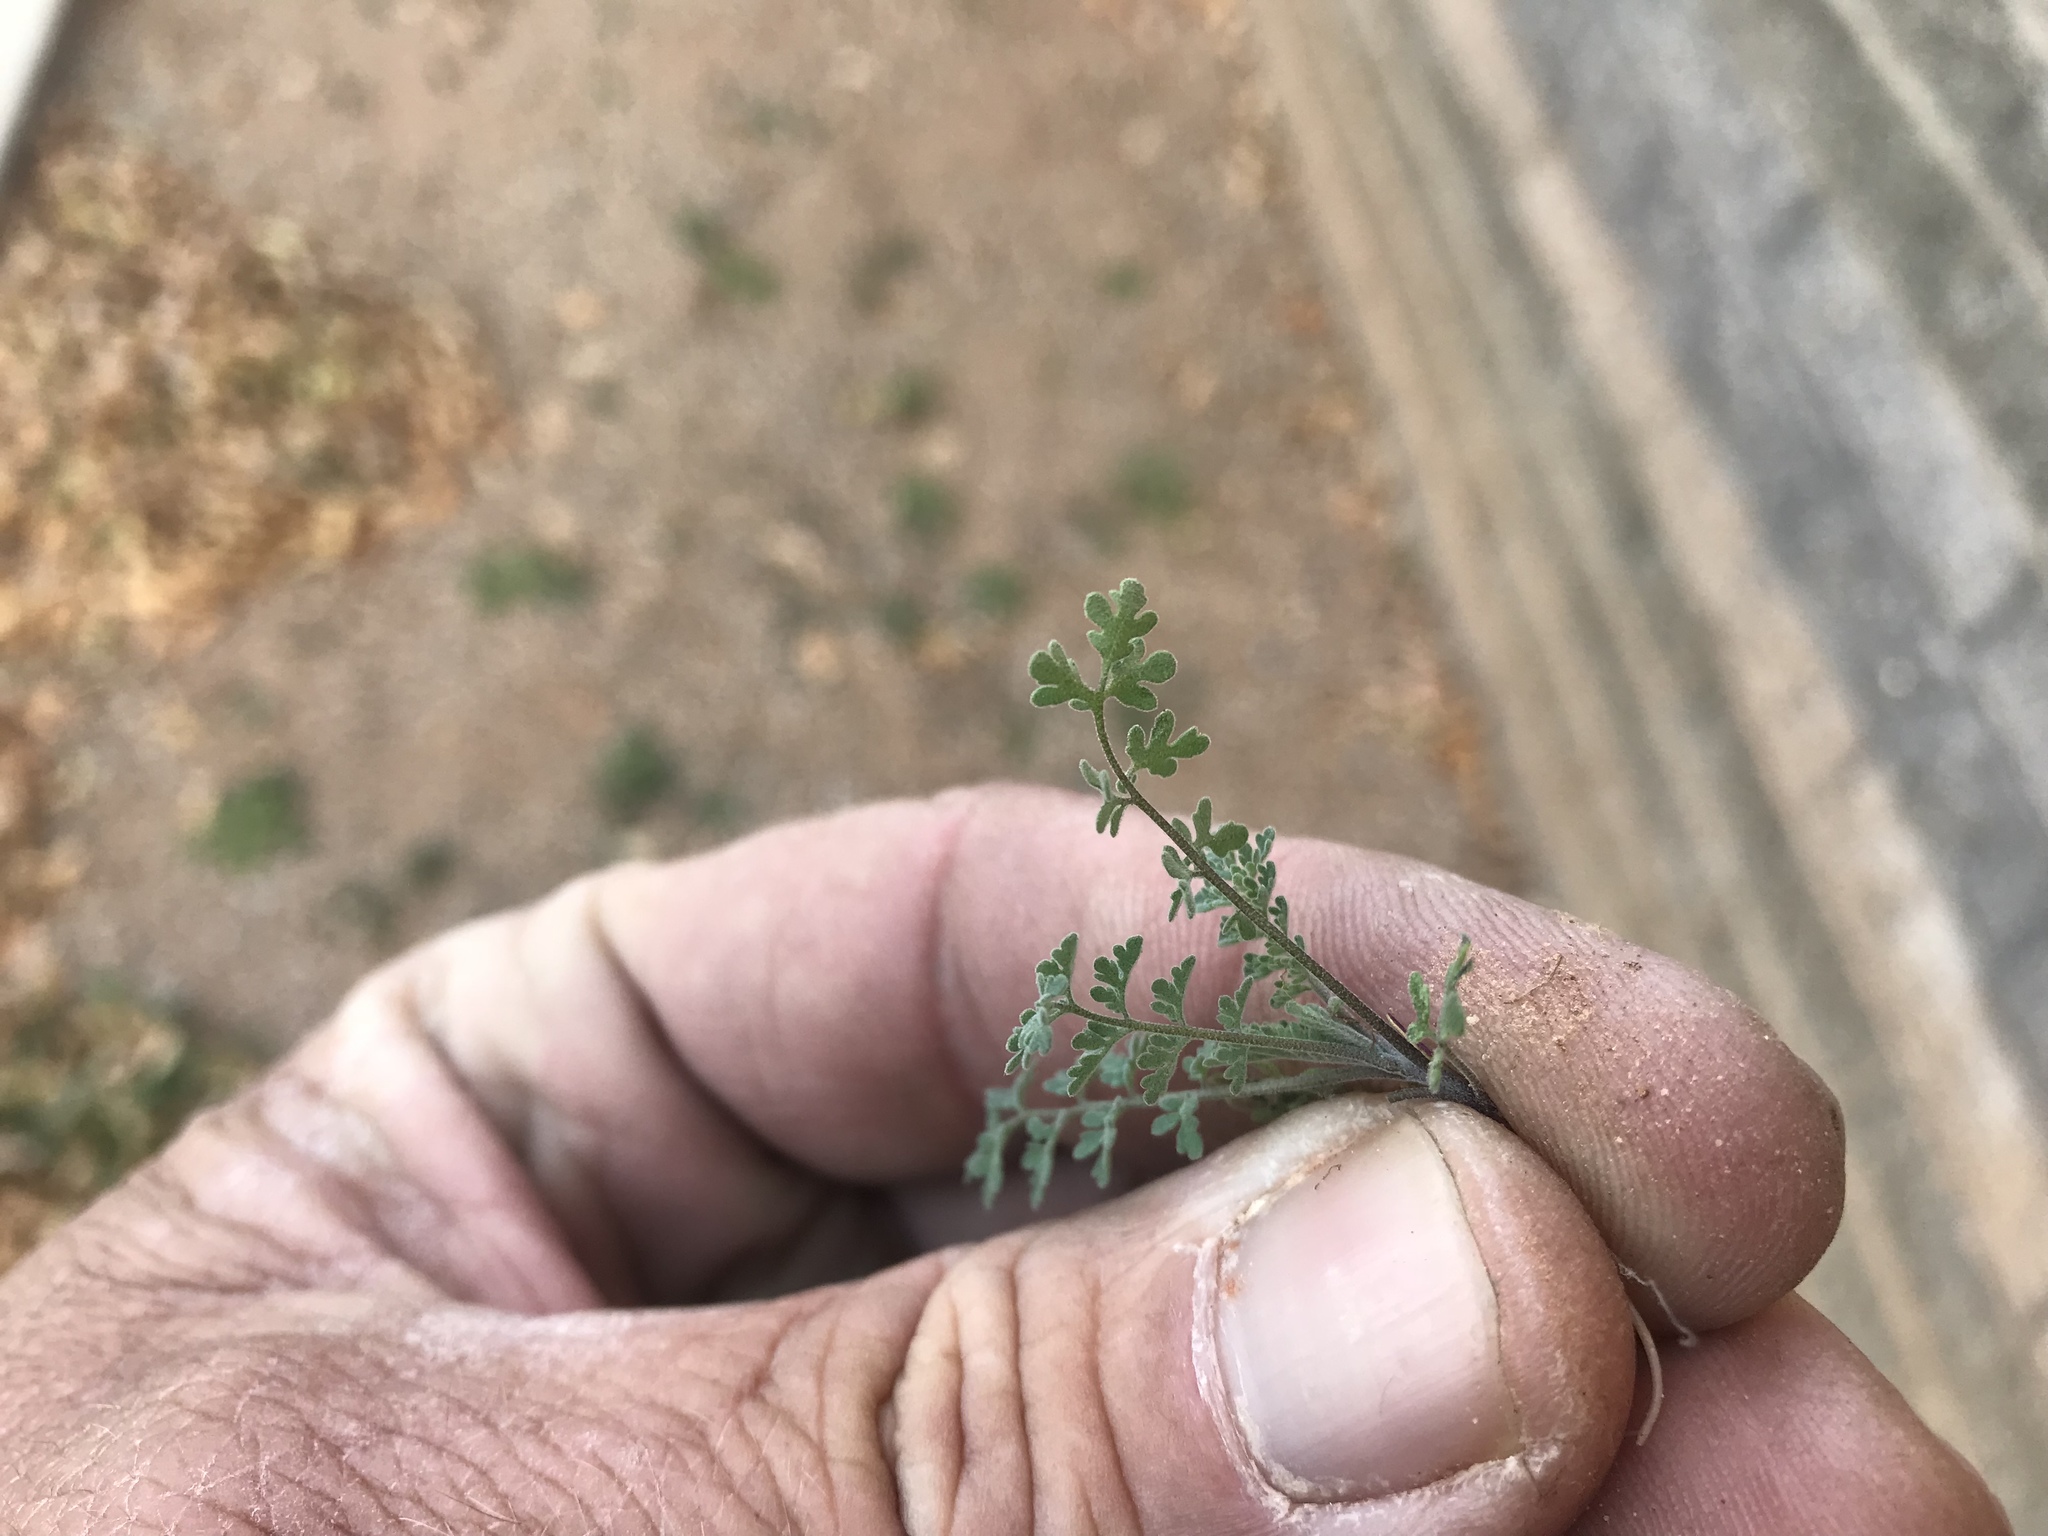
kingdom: Plantae
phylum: Tracheophyta
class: Magnoliopsida
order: Brassicales
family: Brassicaceae
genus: Descurainia
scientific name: Descurainia pinnata
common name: Western tansy mustard
